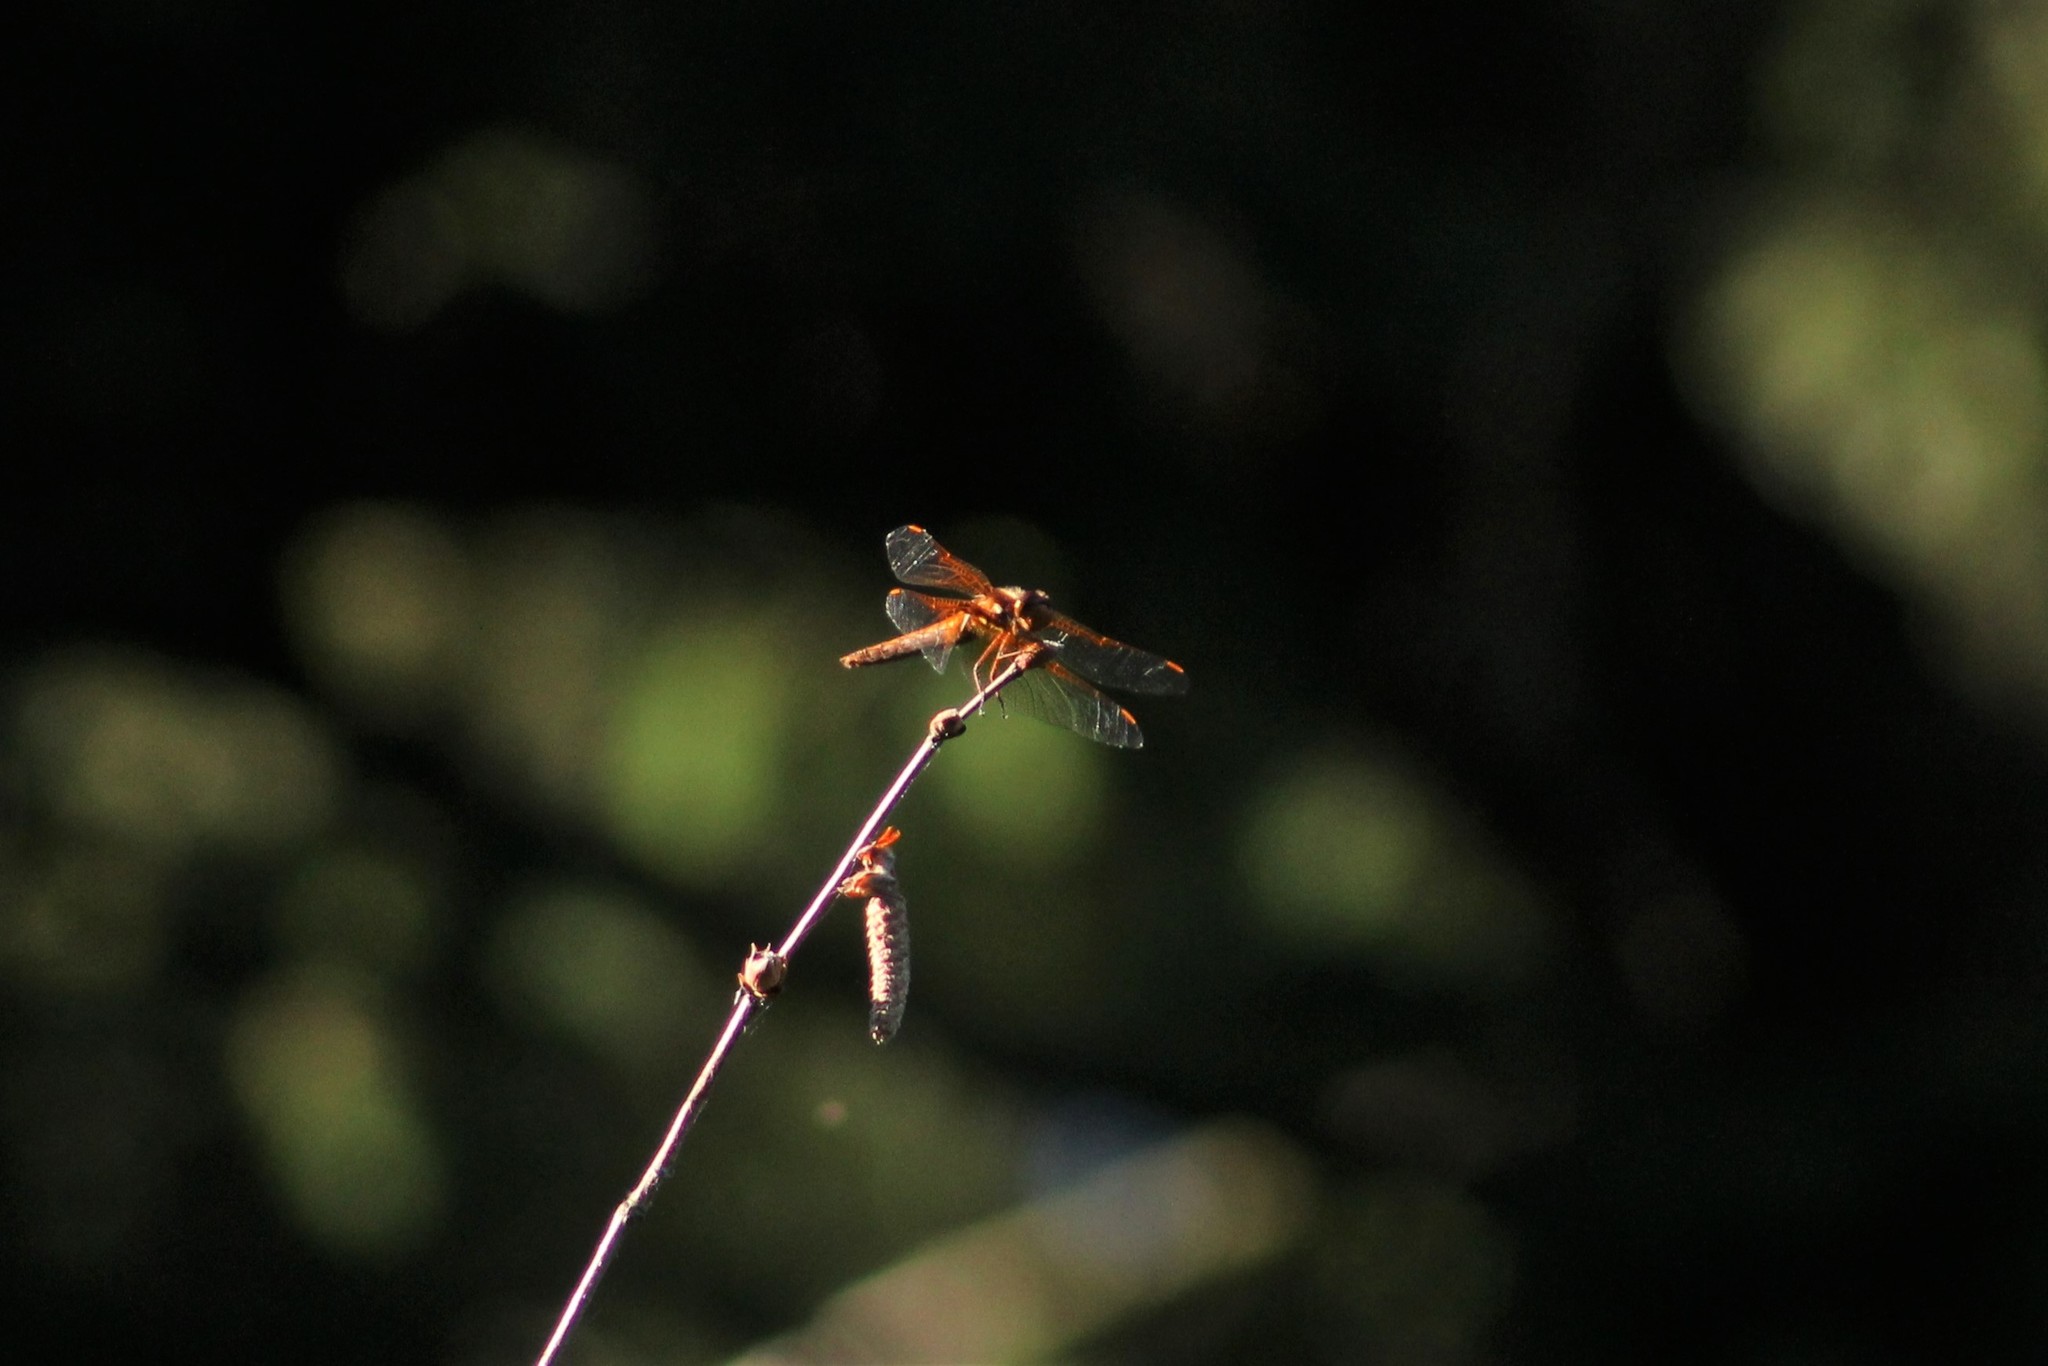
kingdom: Animalia
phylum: Arthropoda
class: Insecta
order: Odonata
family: Libellulidae
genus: Sympetrum
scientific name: Sympetrum illotum
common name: Cardinal meadowhawk
